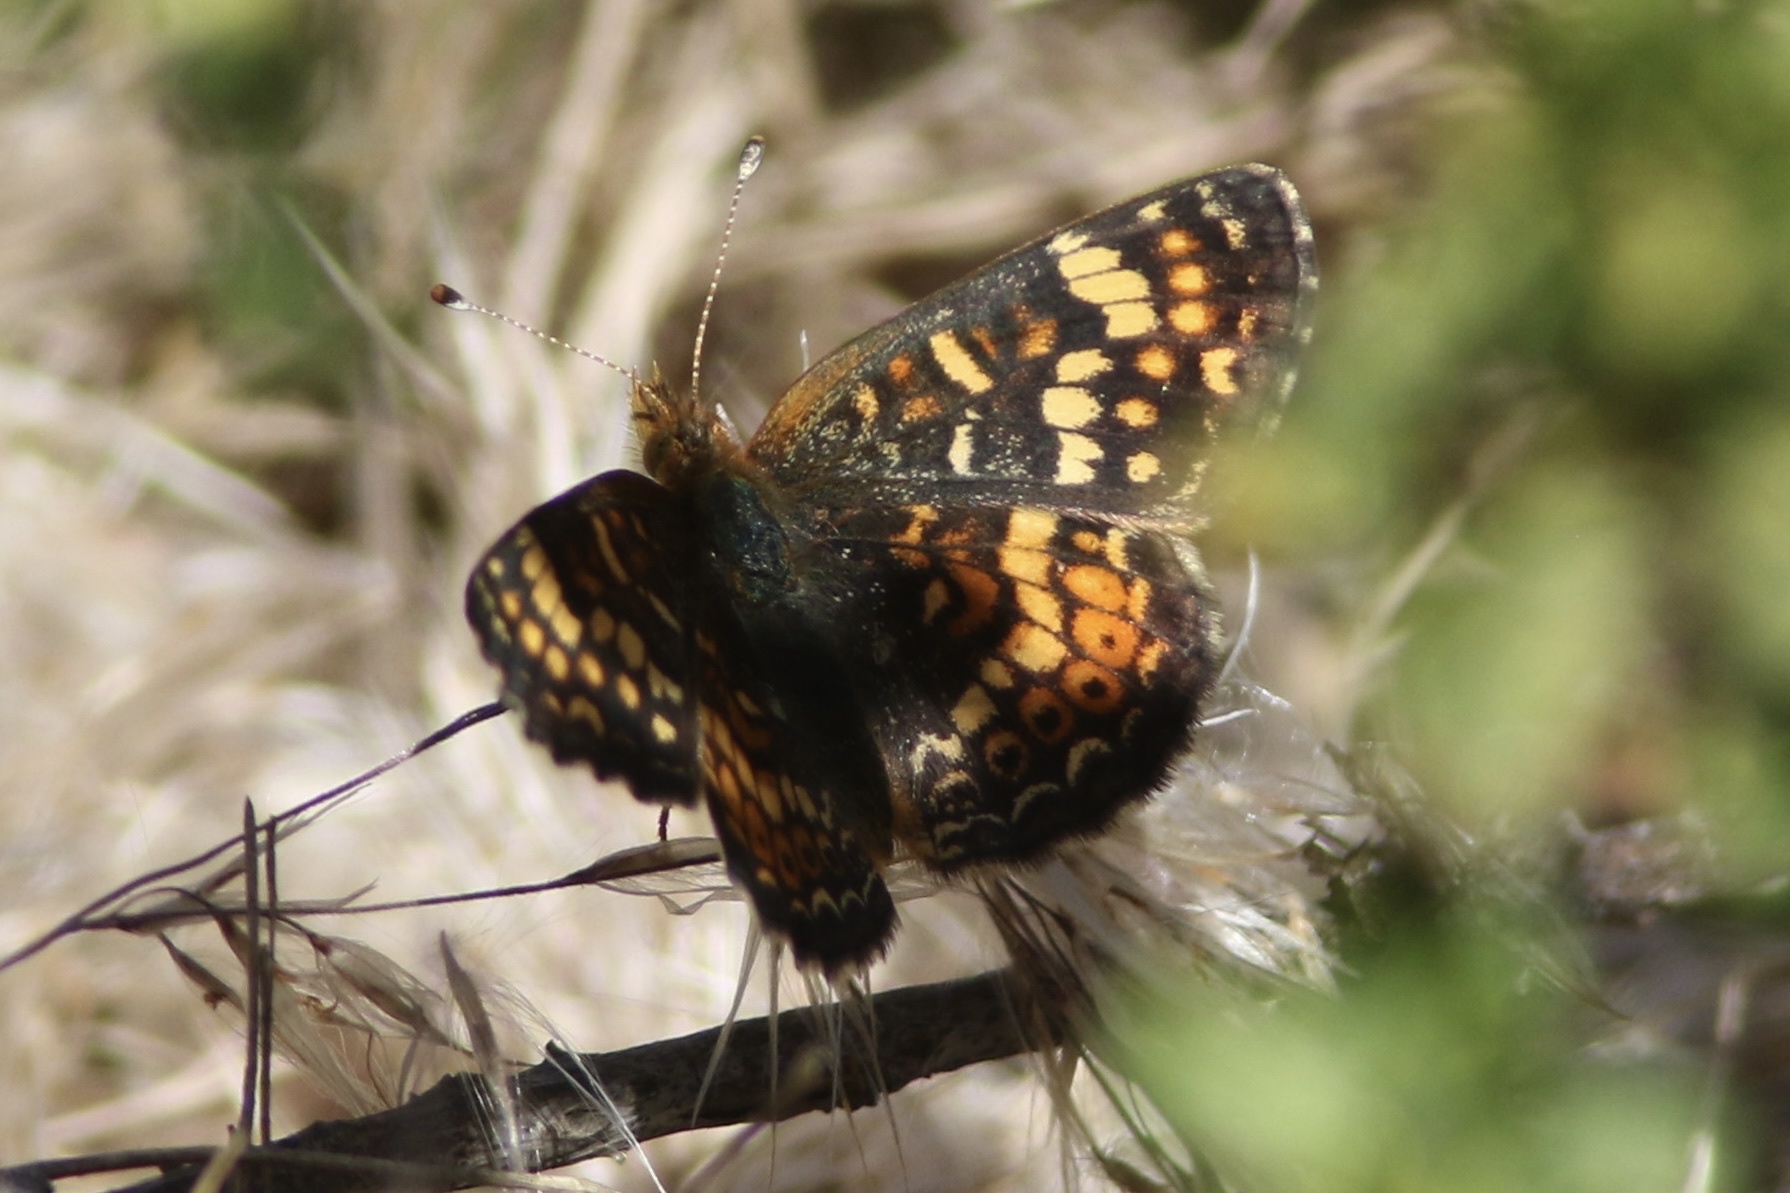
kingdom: Animalia
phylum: Arthropoda
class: Insecta
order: Lepidoptera
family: Nymphalidae
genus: Phyciodes
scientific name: Phyciodes tharos
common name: Pearl crescent
